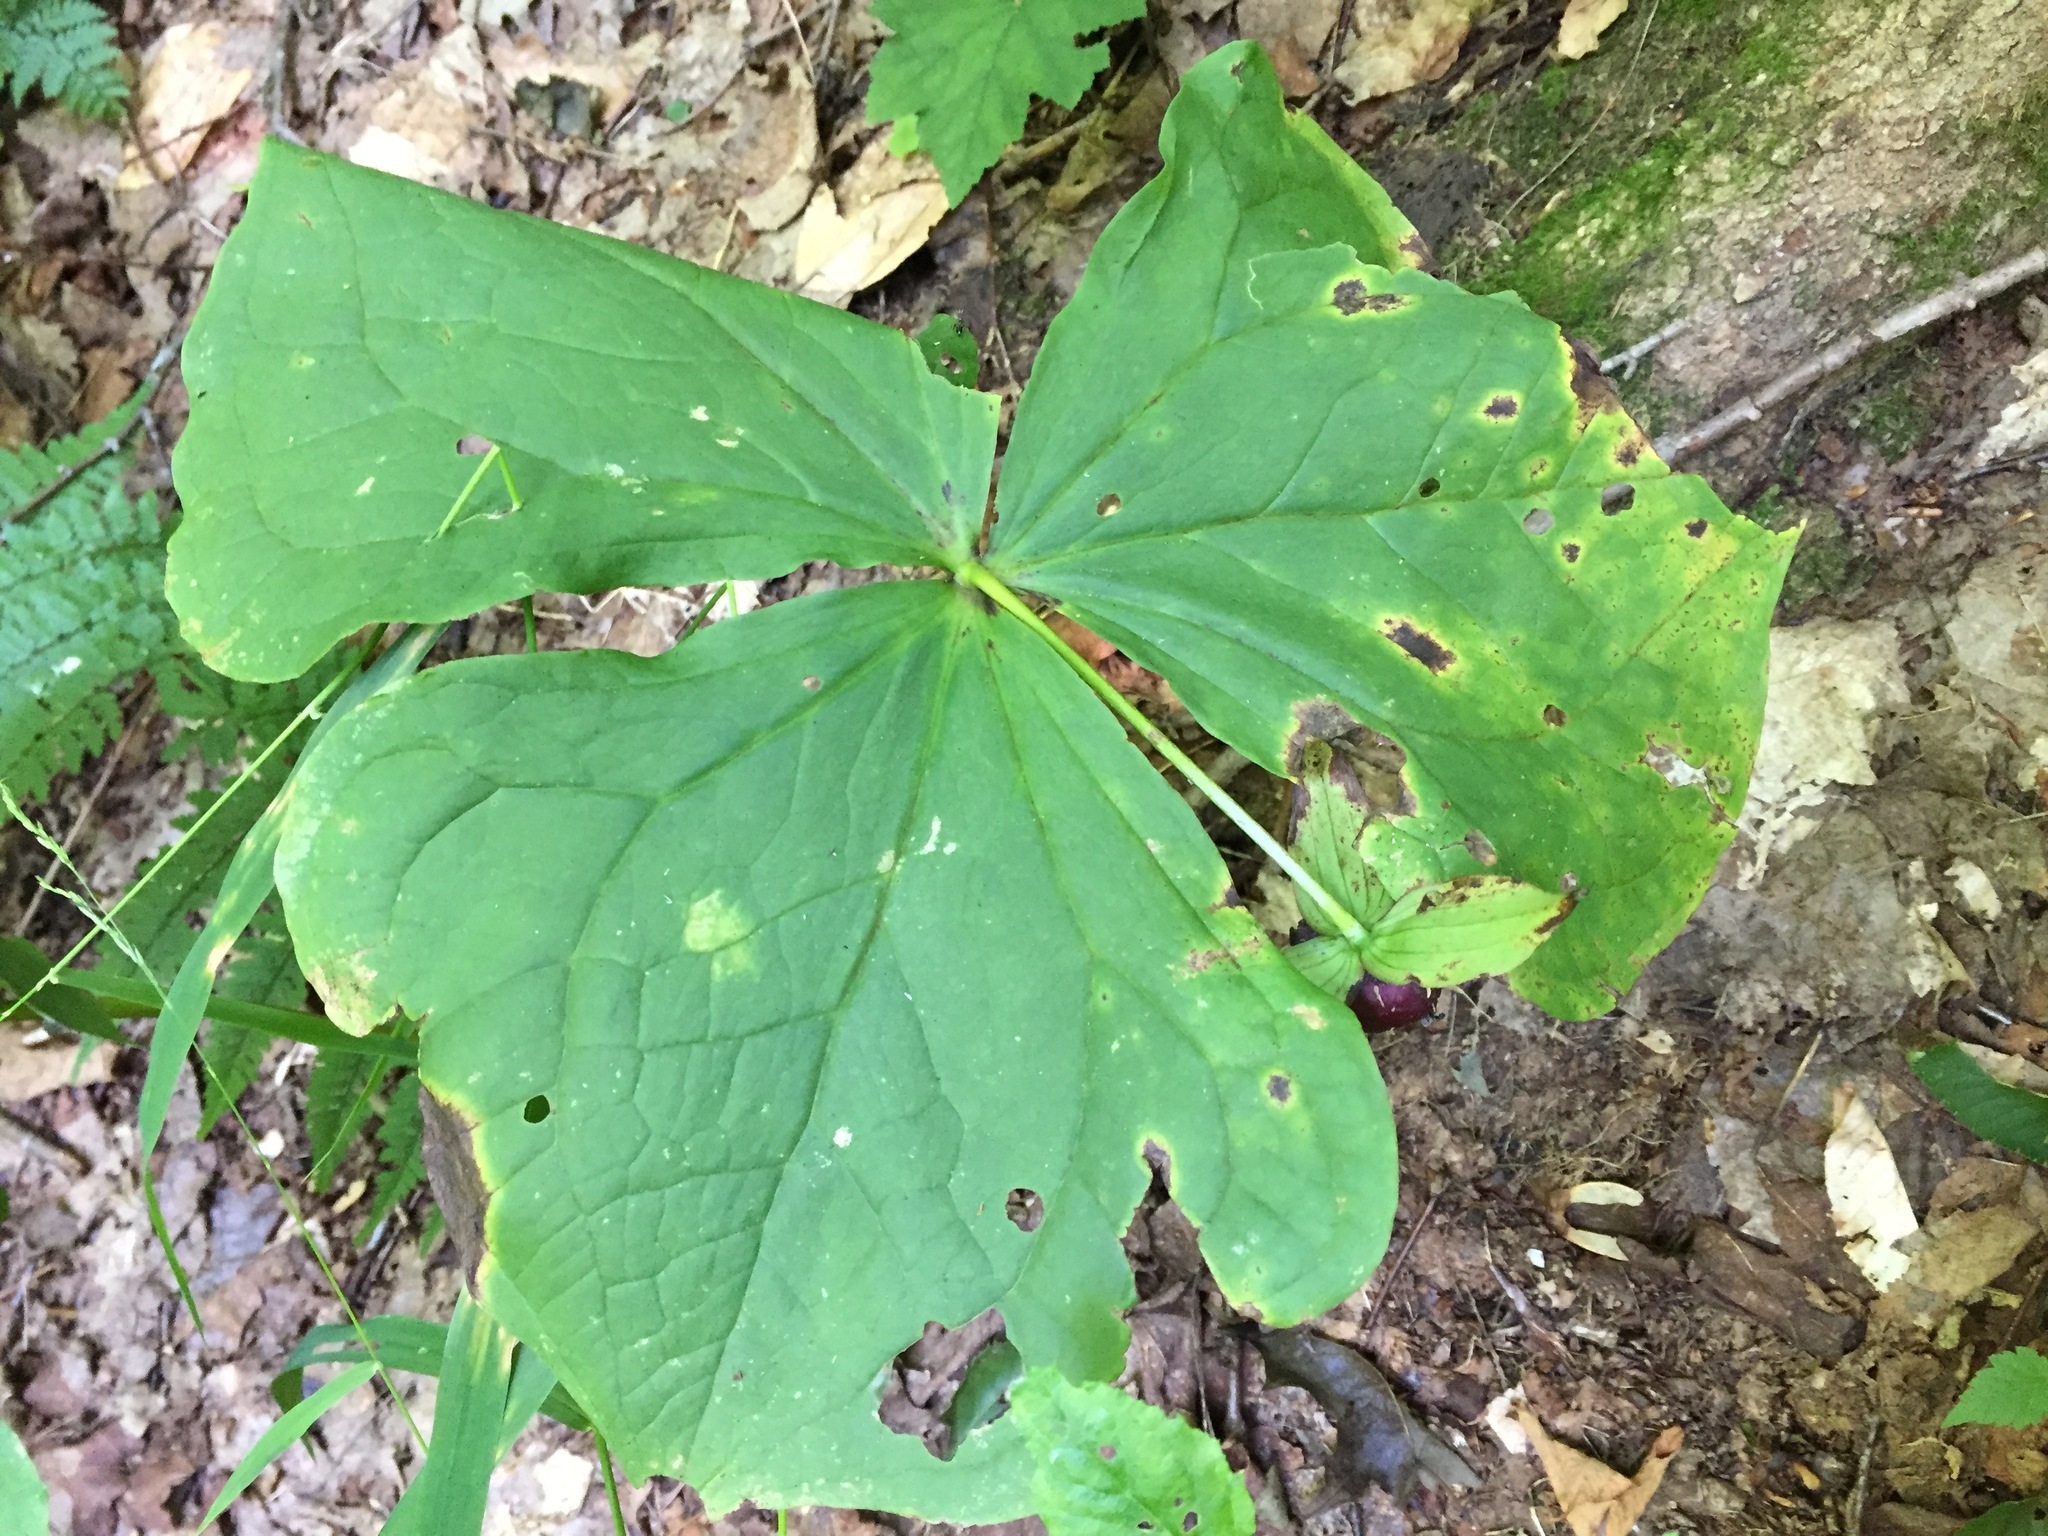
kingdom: Plantae
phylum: Tracheophyta
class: Liliopsida
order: Liliales
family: Melanthiaceae
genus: Trillium
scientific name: Trillium erectum
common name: Purple trillium
